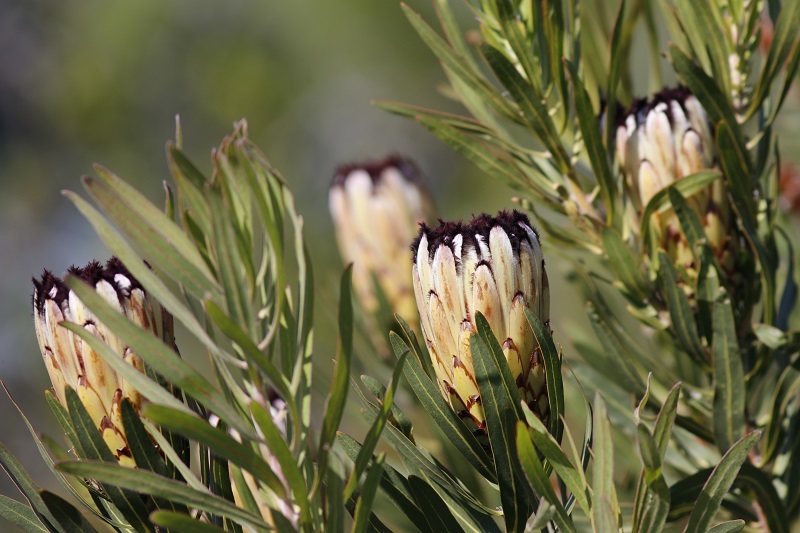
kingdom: Plantae
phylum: Tracheophyta
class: Magnoliopsida
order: Proteales
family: Proteaceae
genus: Protea
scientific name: Protea neriifolia
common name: Blue sugarbush
